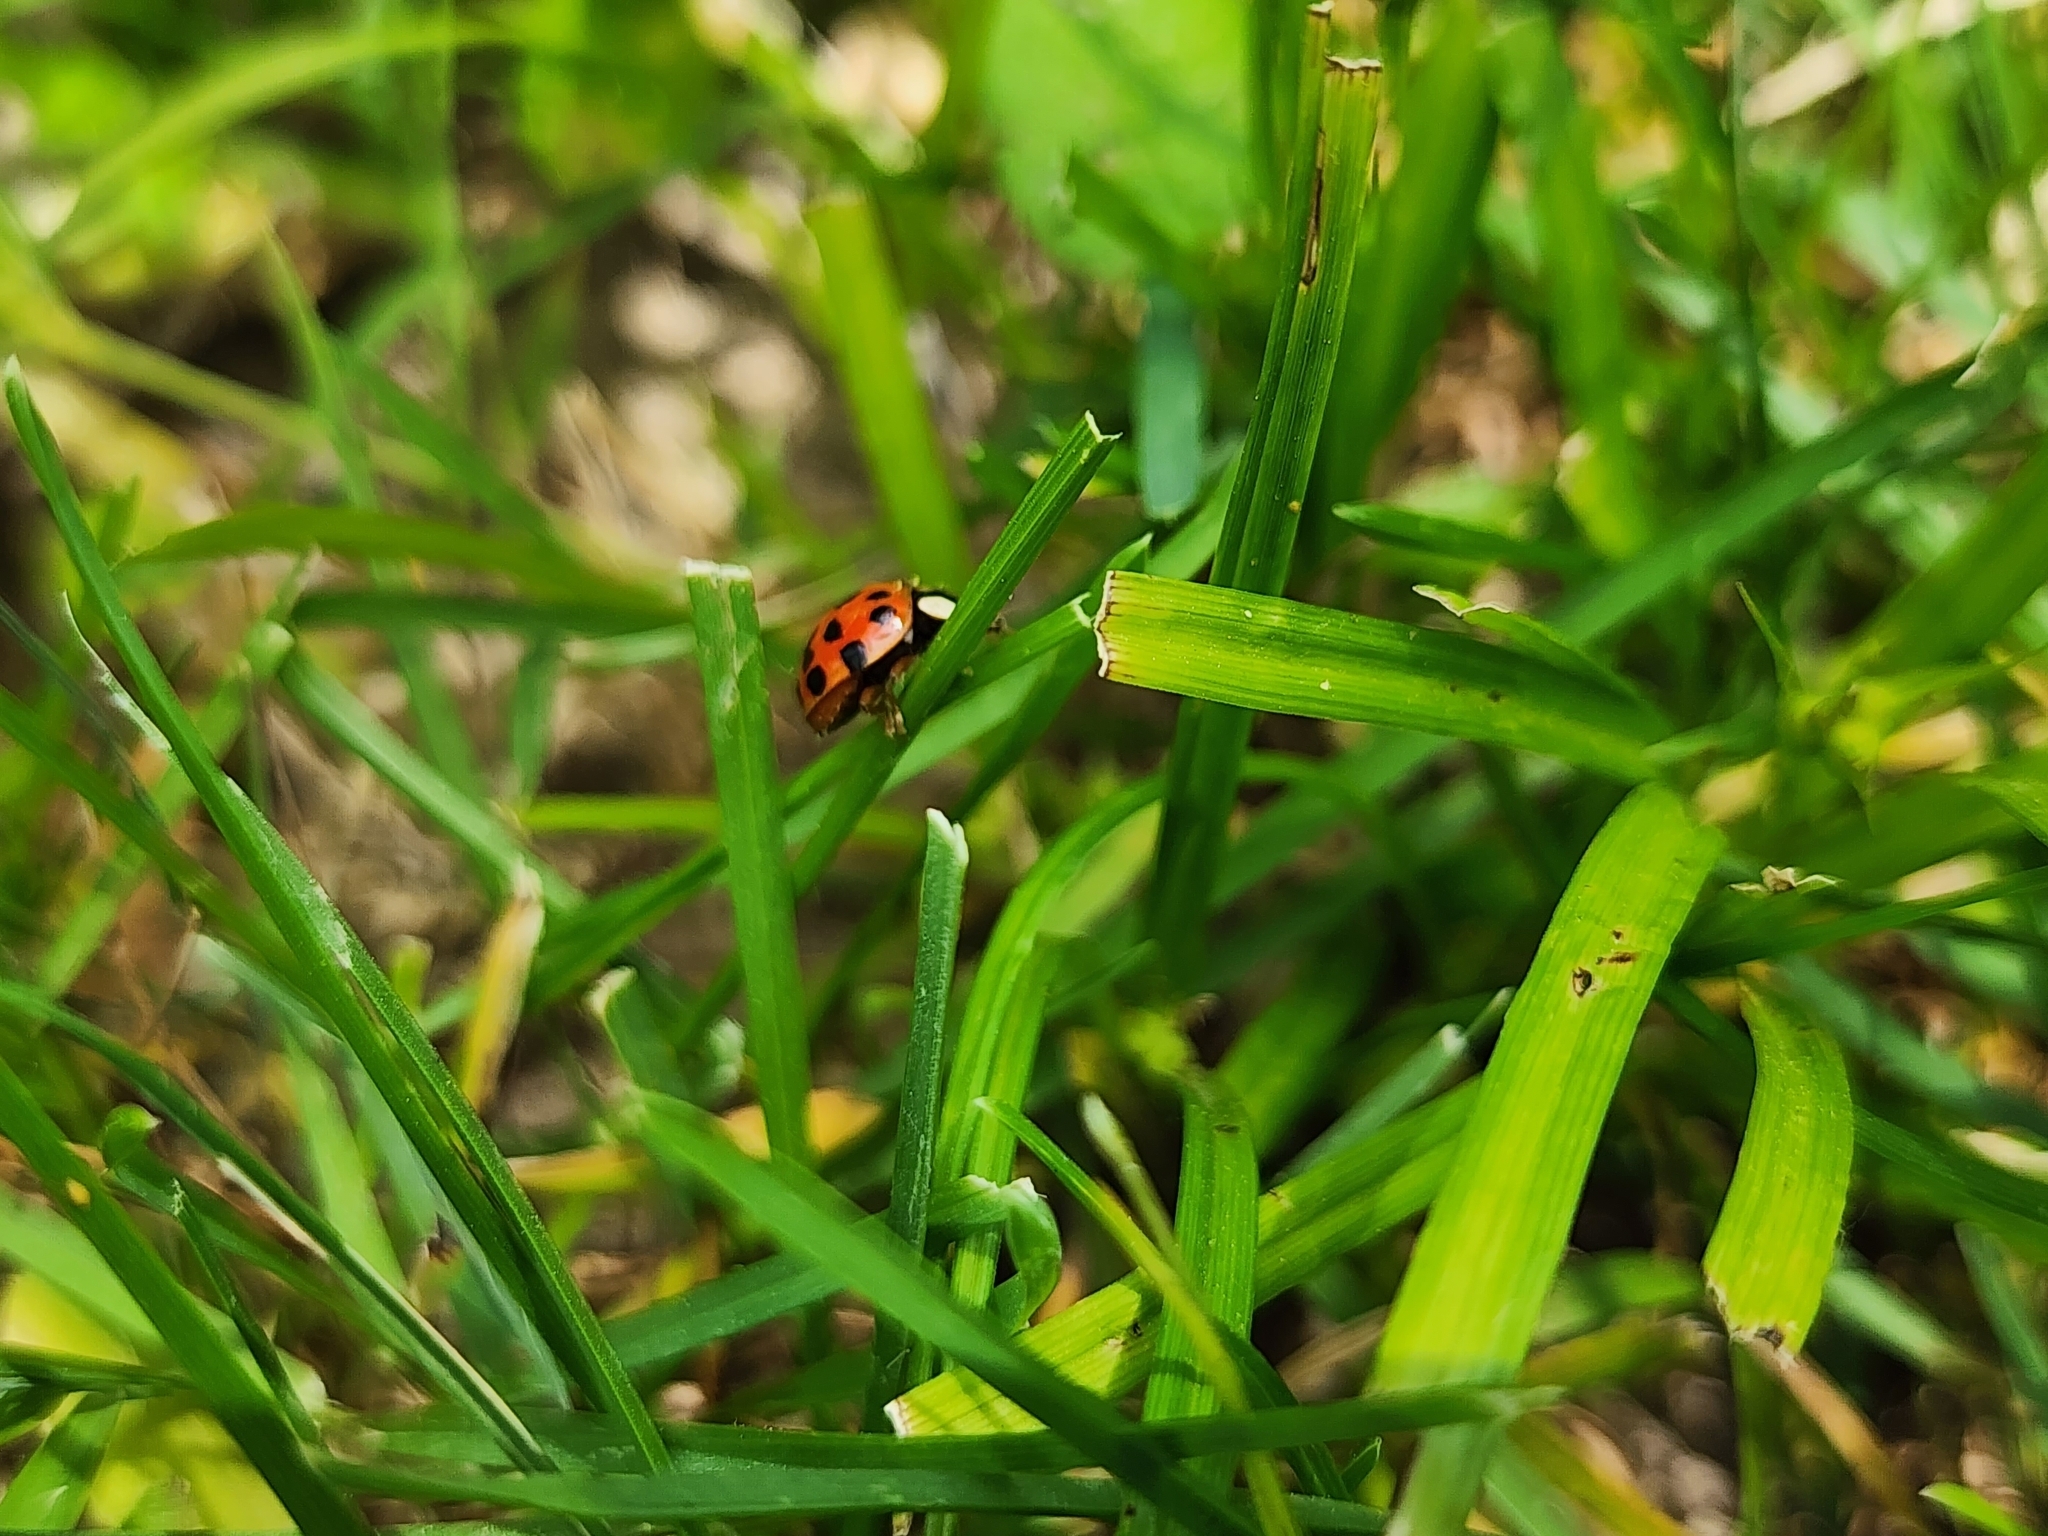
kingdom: Animalia
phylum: Arthropoda
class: Insecta
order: Coleoptera
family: Coccinellidae
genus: Harmonia
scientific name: Harmonia axyridis
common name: Harlequin ladybird
